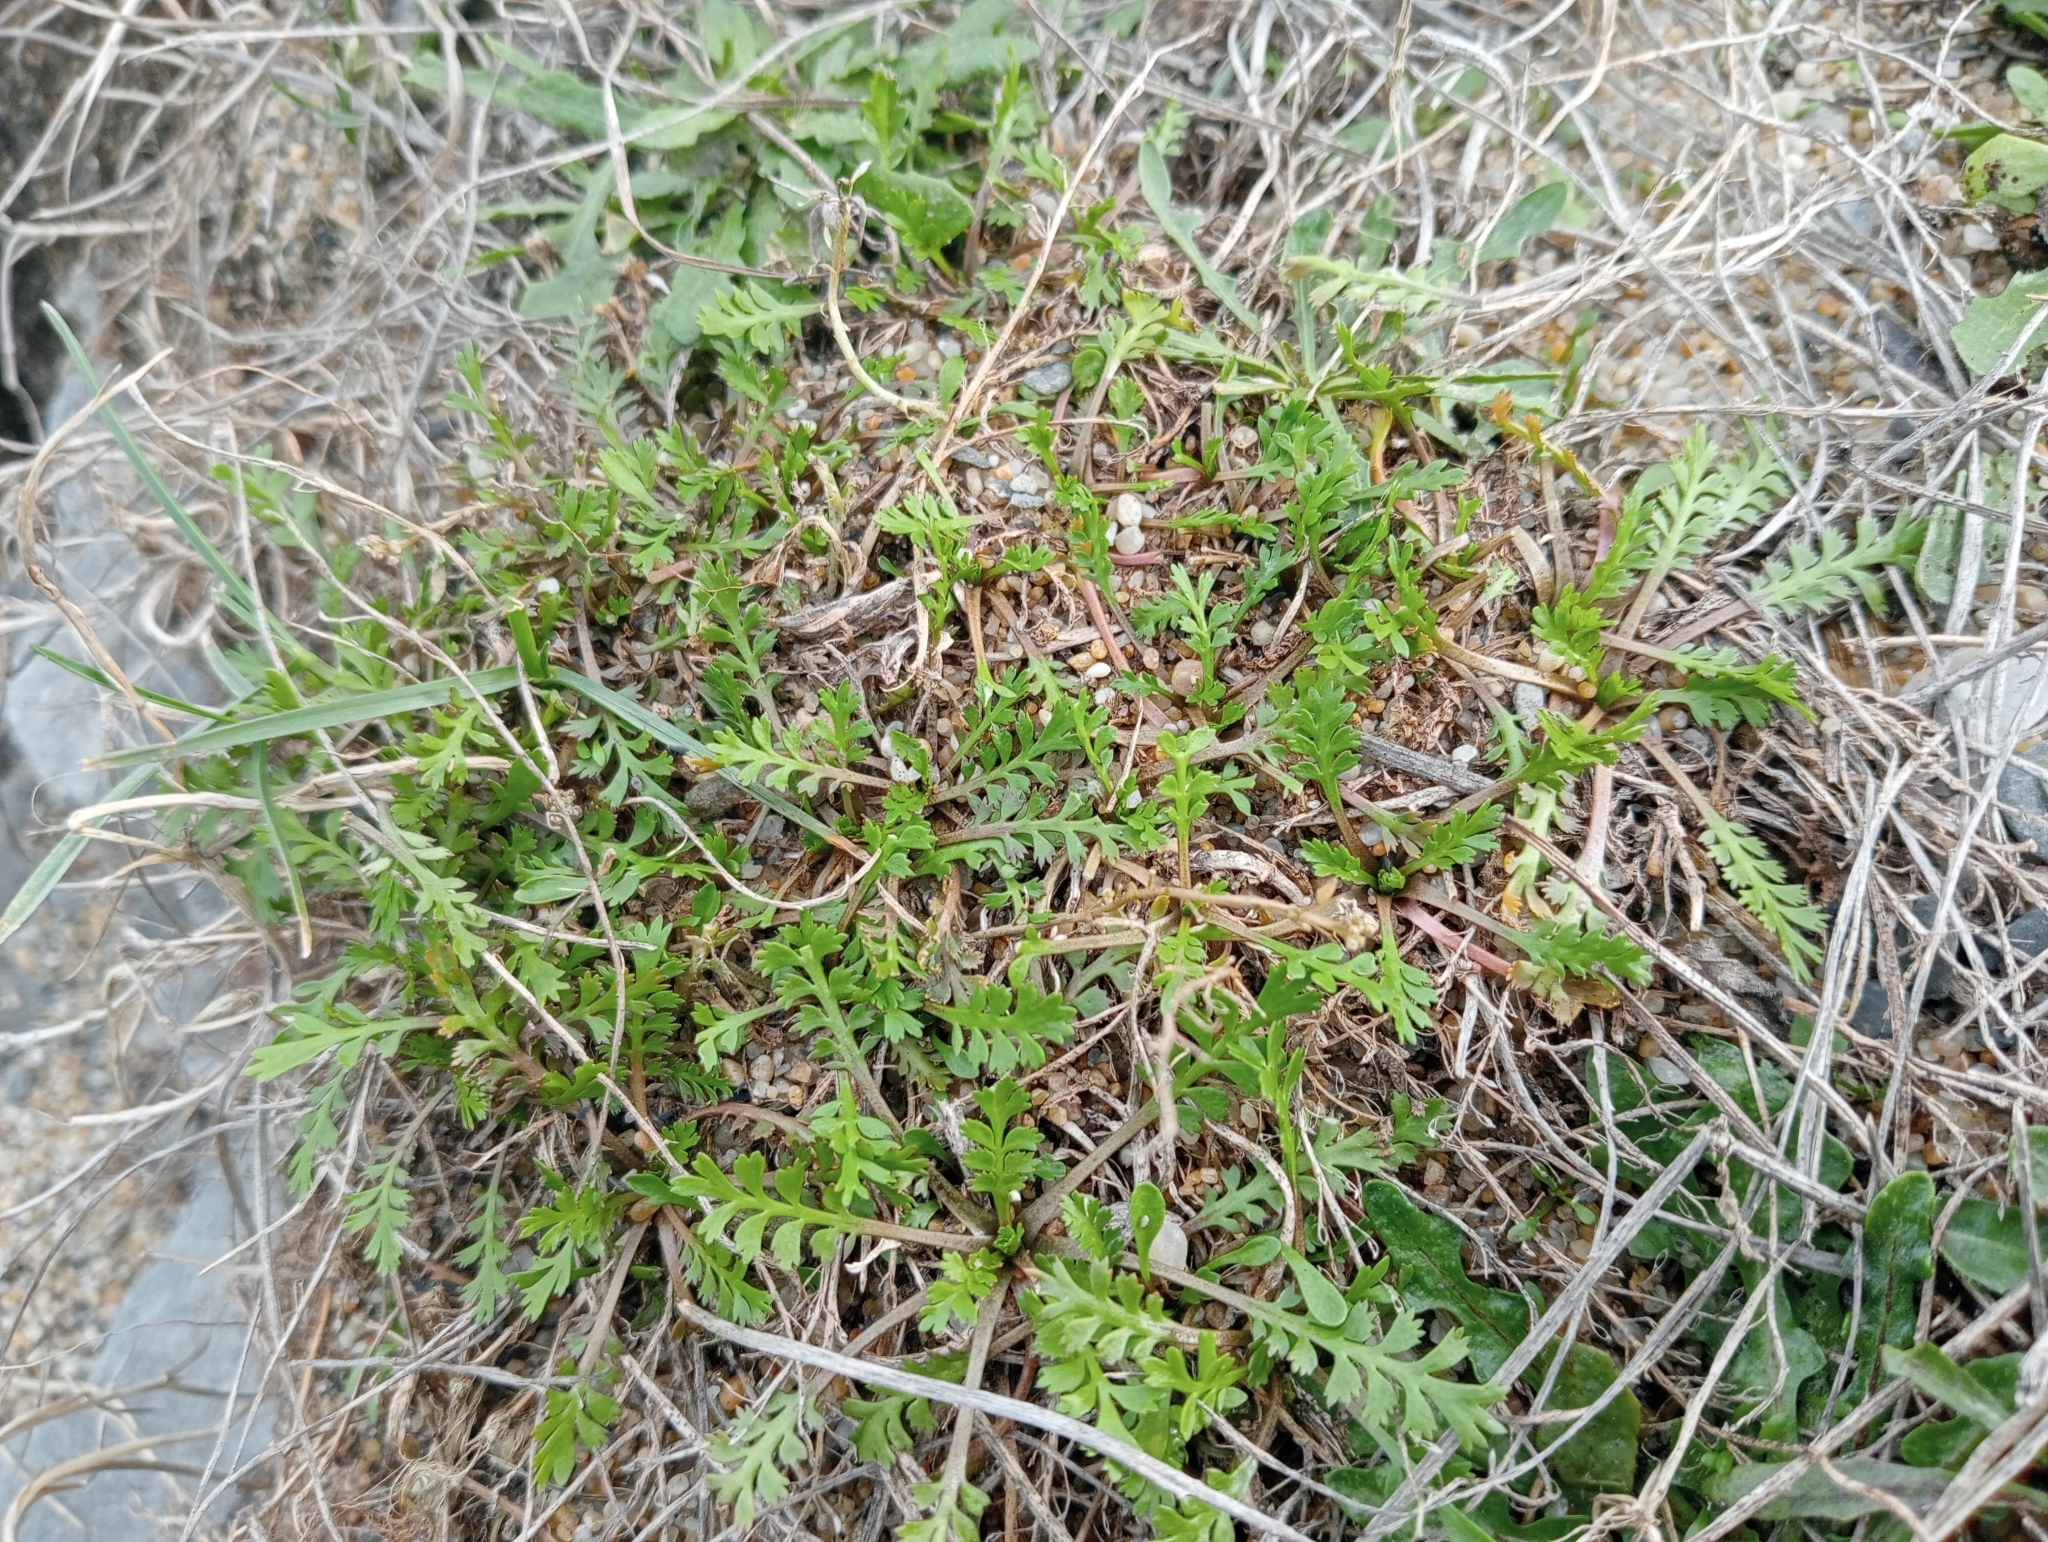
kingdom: Plantae
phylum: Tracheophyta
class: Magnoliopsida
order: Brassicales
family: Brassicaceae
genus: Lepidium
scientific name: Lepidium tenuicaule
